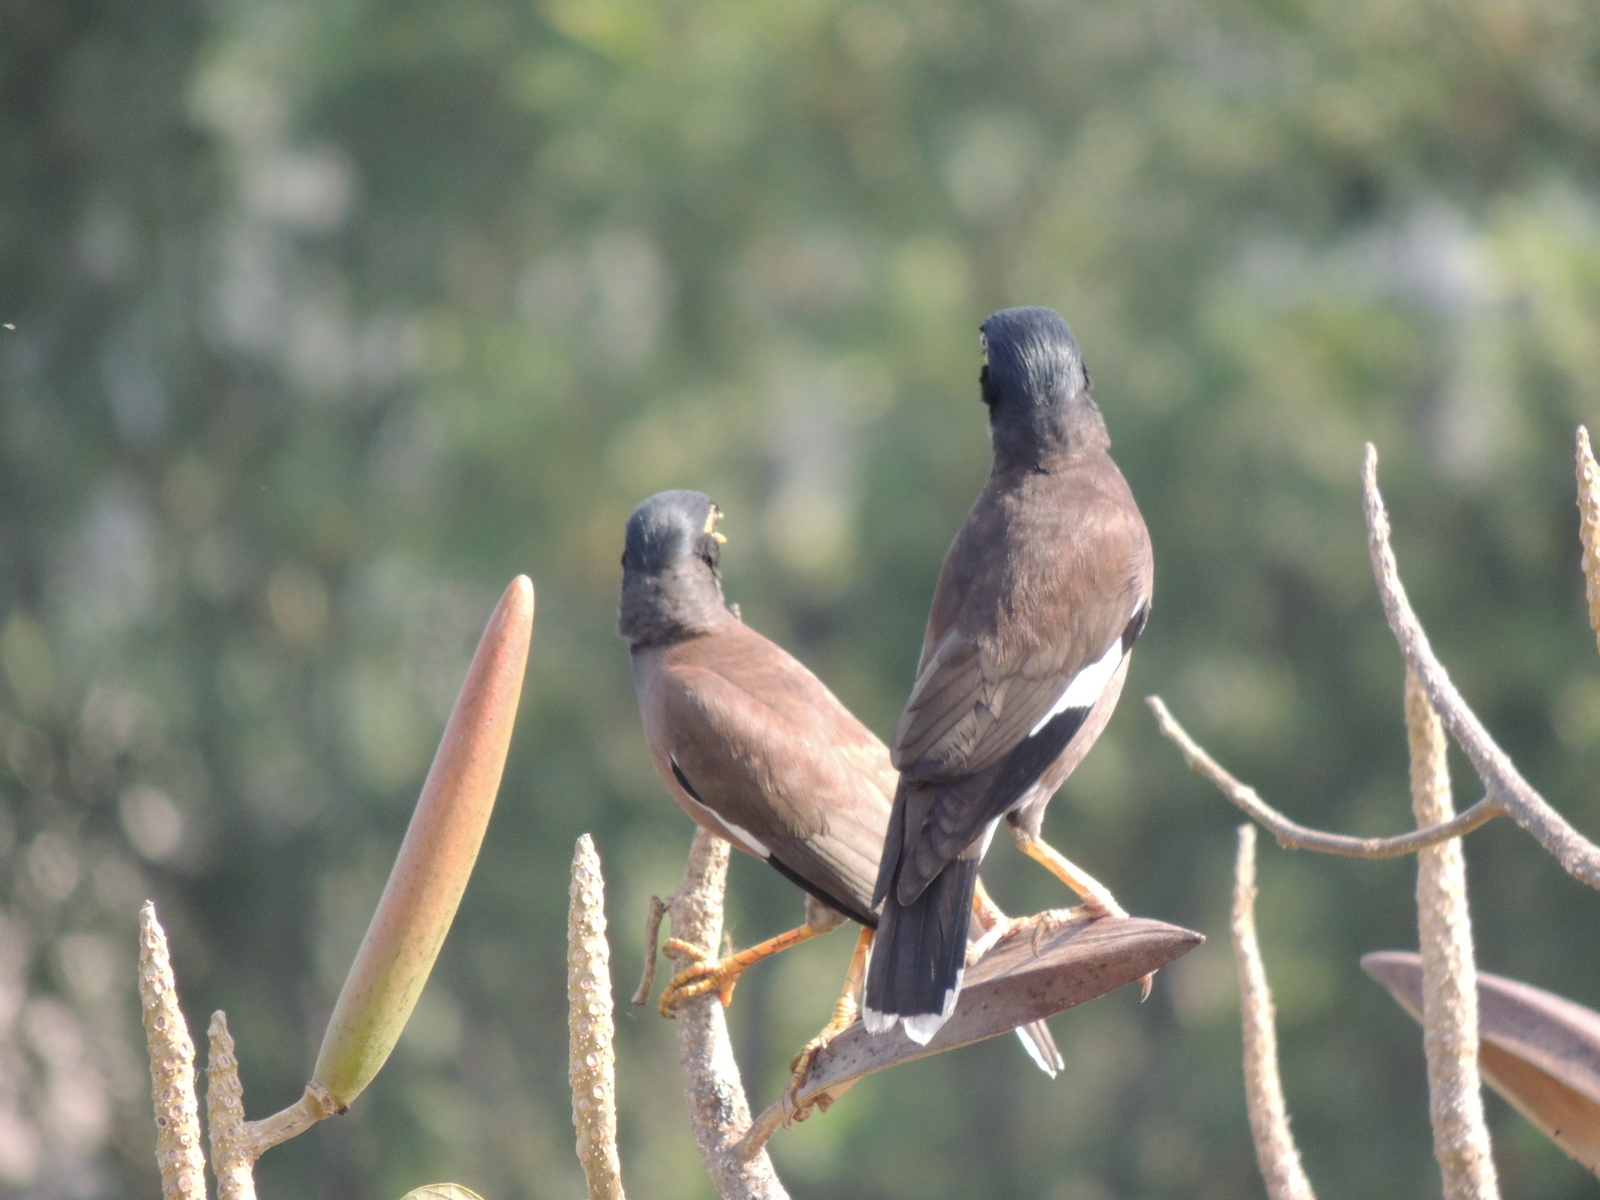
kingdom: Animalia
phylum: Chordata
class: Aves
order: Passeriformes
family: Sturnidae
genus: Acridotheres
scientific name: Acridotheres tristis
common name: Common myna
